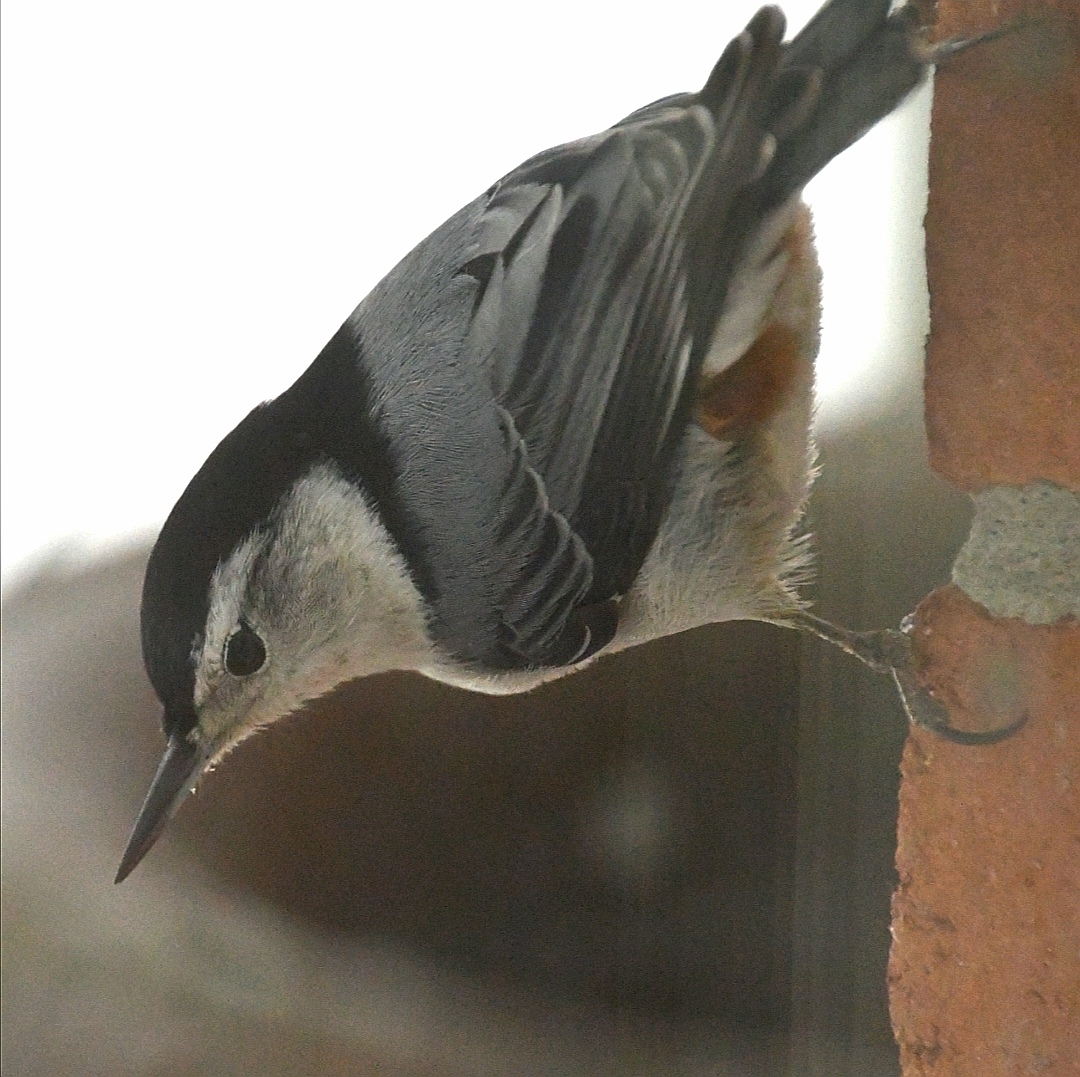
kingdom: Animalia
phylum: Chordata
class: Aves
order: Passeriformes
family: Sittidae
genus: Sitta
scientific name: Sitta carolinensis
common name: White-breasted nuthatch
